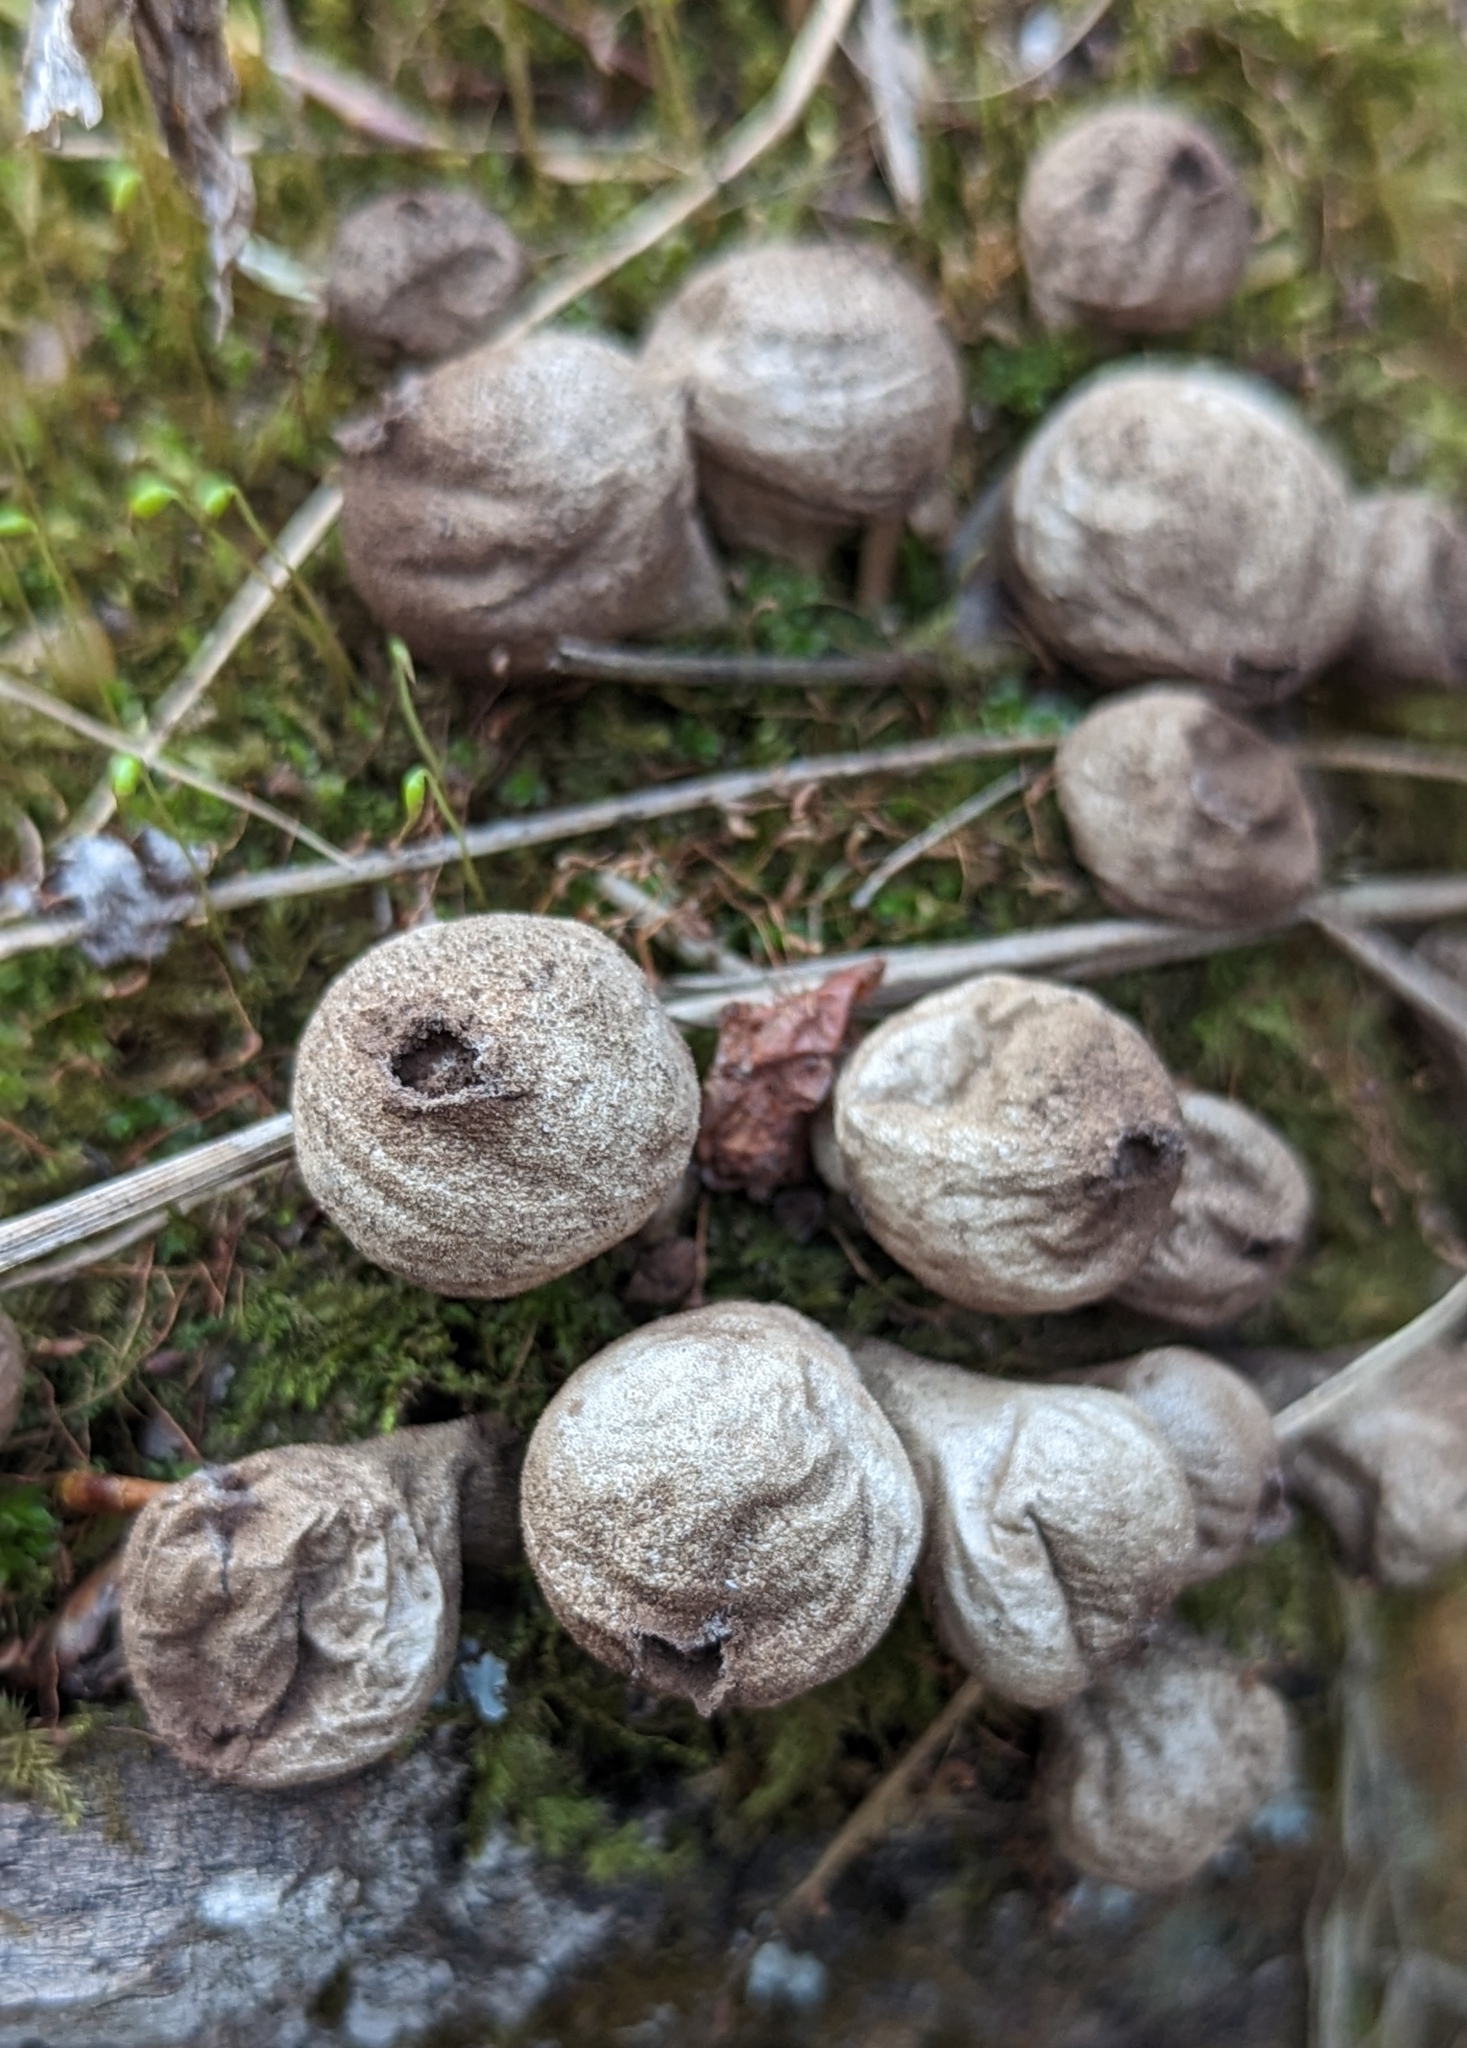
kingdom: Fungi
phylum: Basidiomycota
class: Agaricomycetes
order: Agaricales
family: Lycoperdaceae
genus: Apioperdon
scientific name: Apioperdon pyriforme
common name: Pear-shaped puffball
